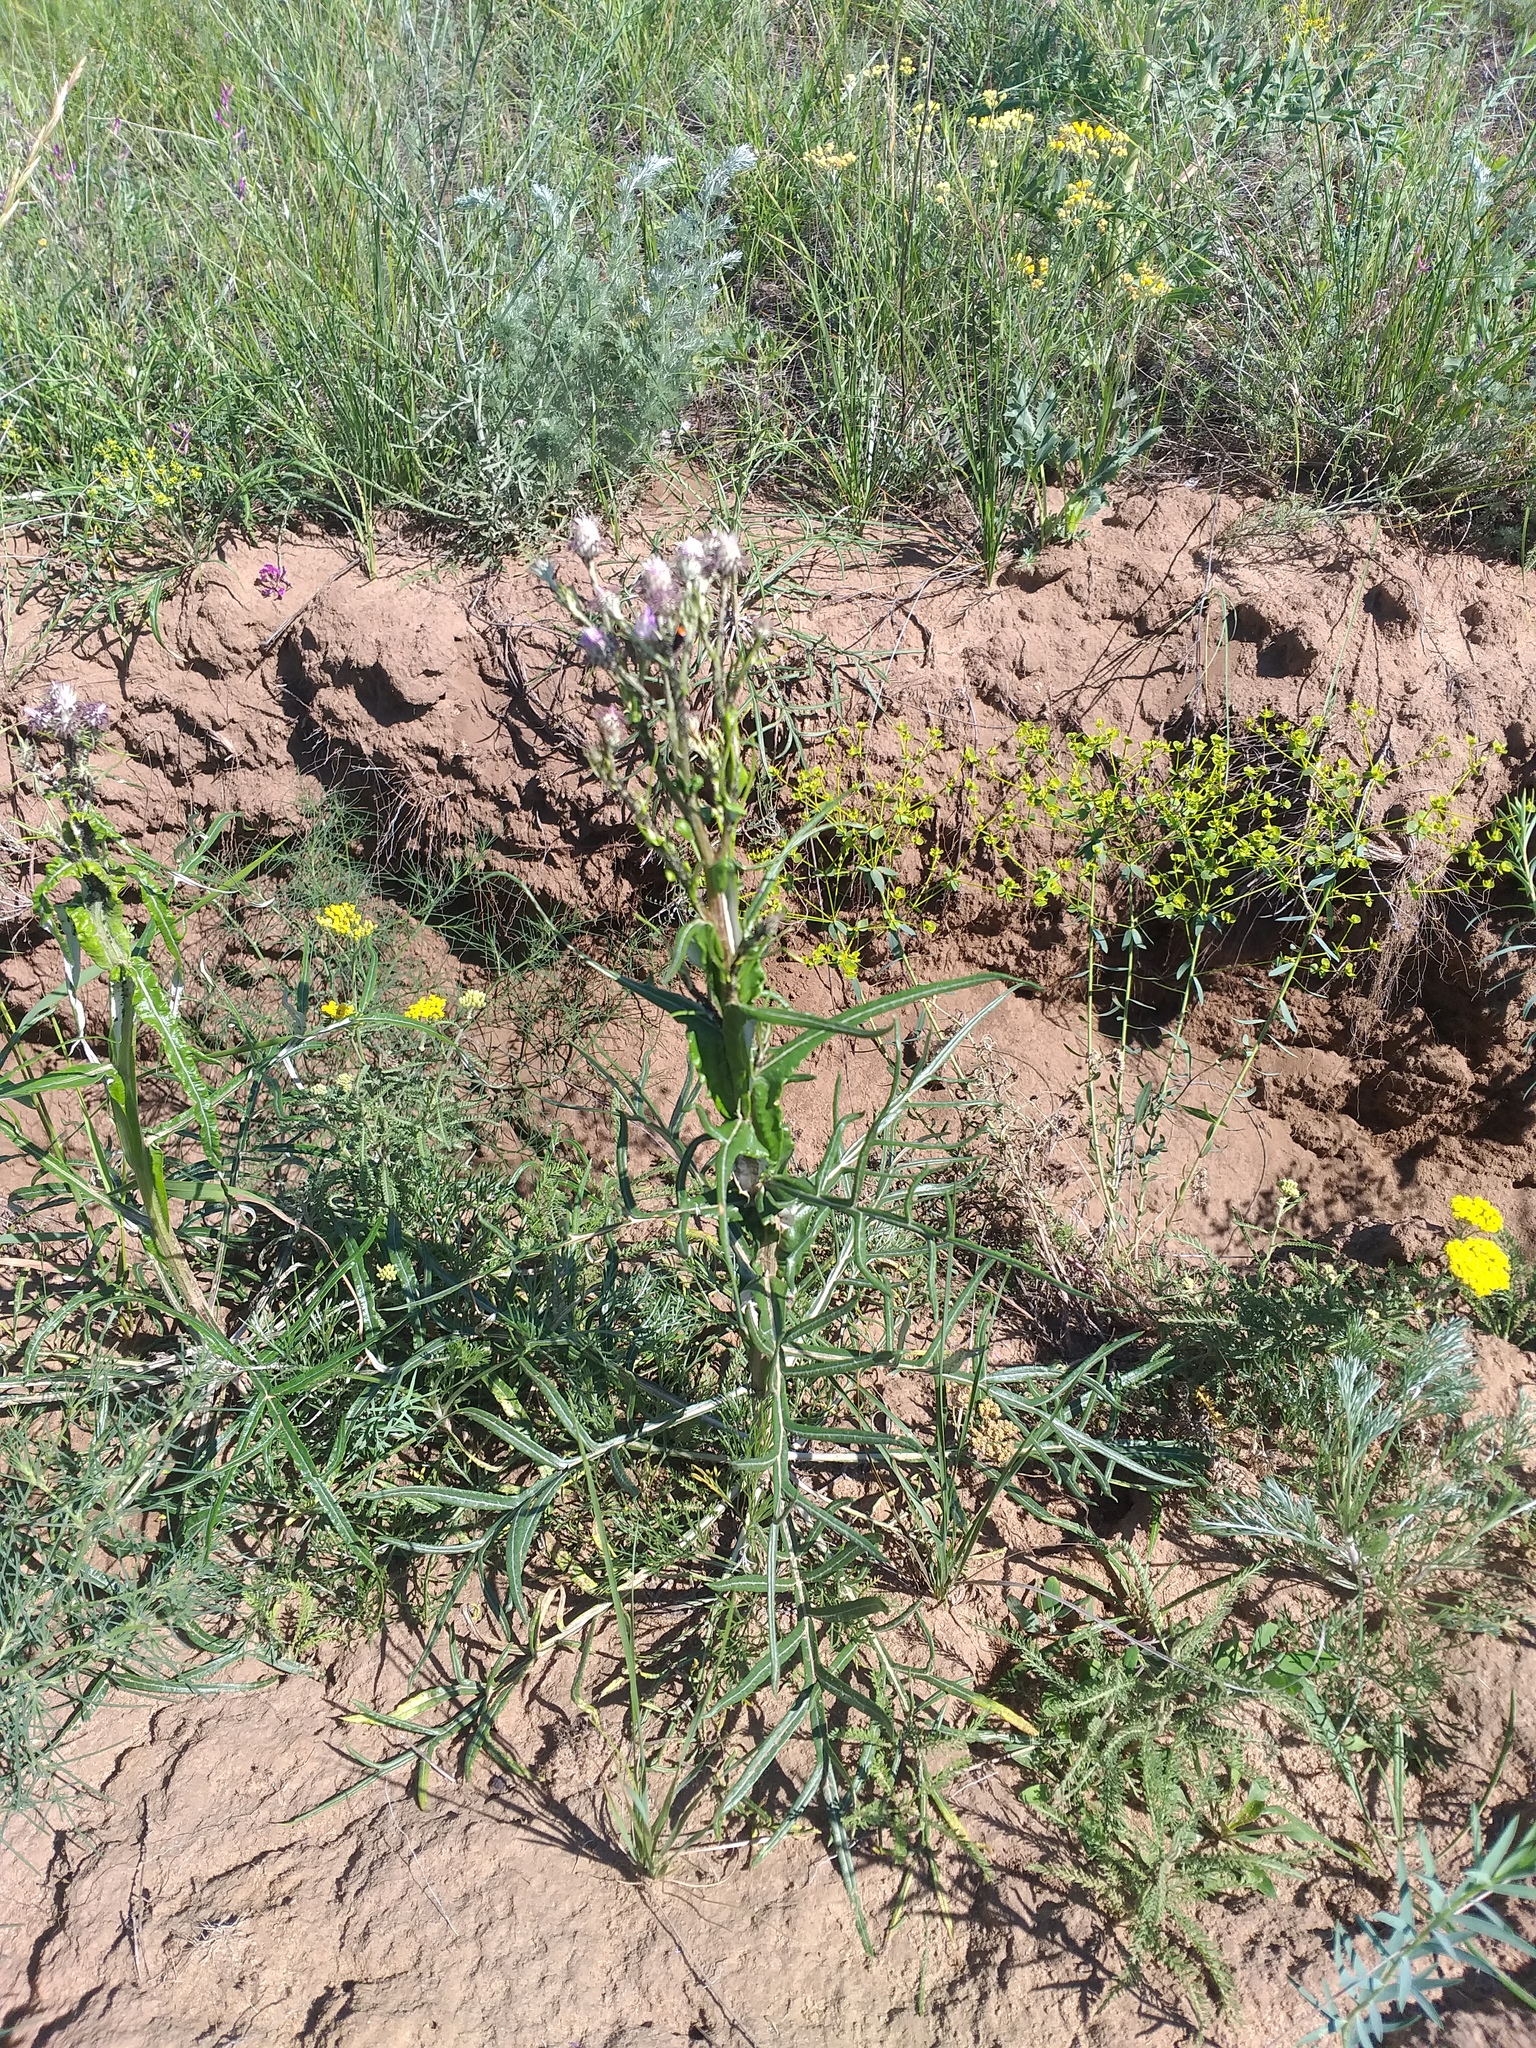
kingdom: Plantae
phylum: Tracheophyta
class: Magnoliopsida
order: Asterales
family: Asteraceae
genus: Jurinea
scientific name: Jurinea polyclonos
